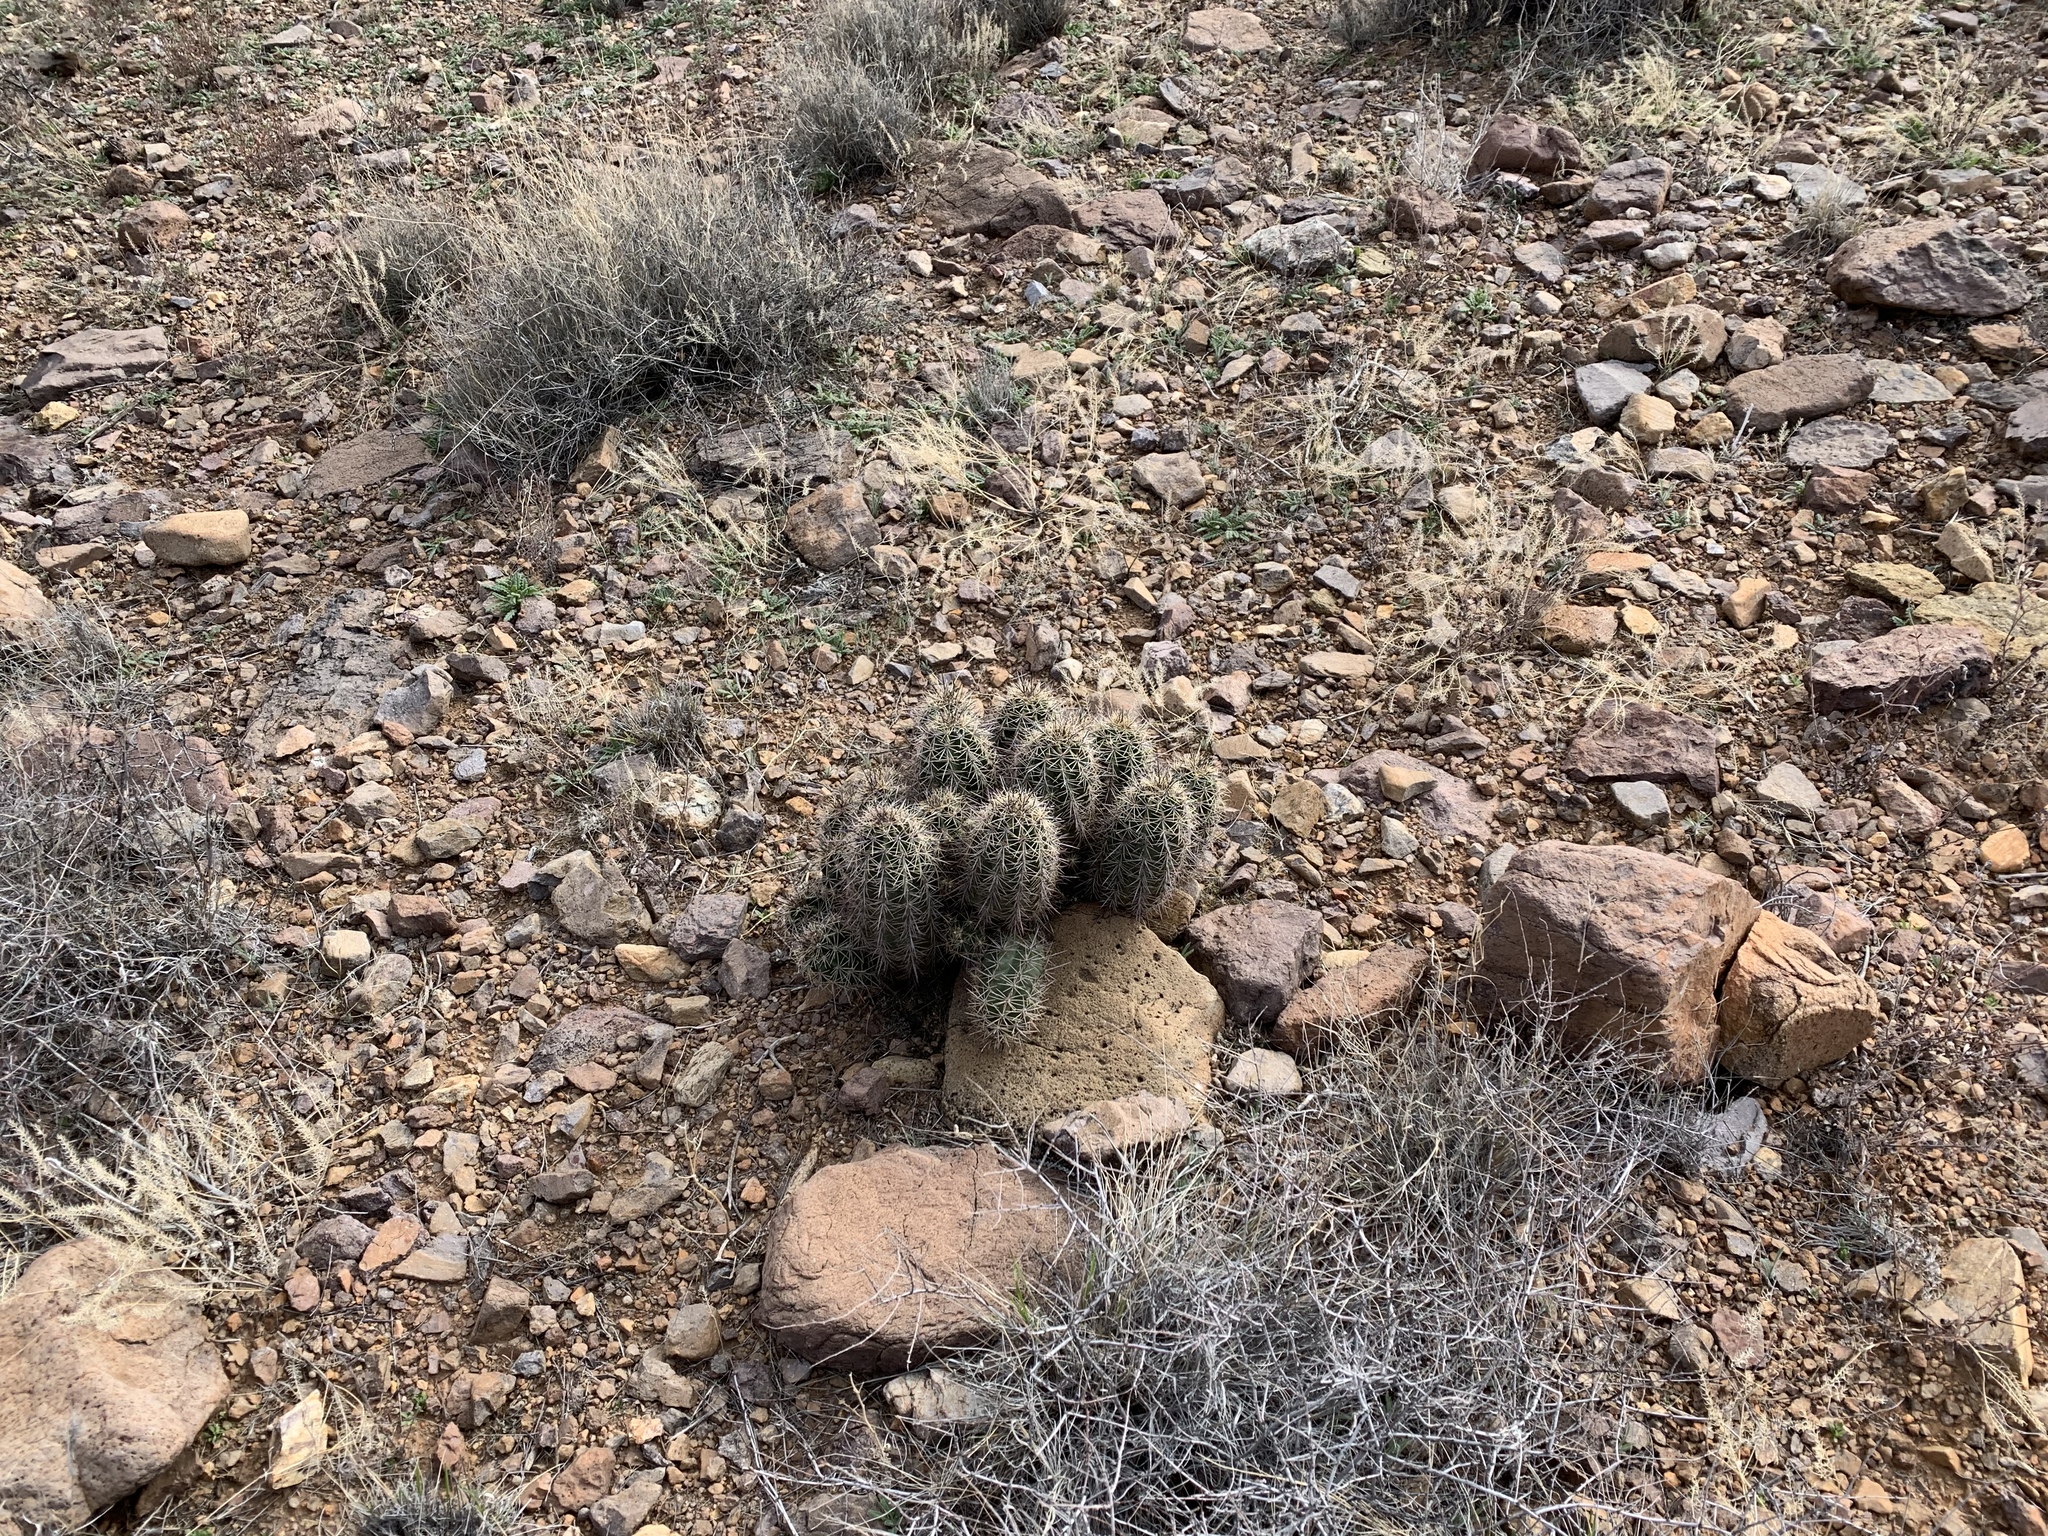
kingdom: Plantae
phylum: Tracheophyta
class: Magnoliopsida
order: Caryophyllales
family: Cactaceae
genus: Echinocereus
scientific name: Echinocereus coccineus
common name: Scarlet hedgehog cactus
